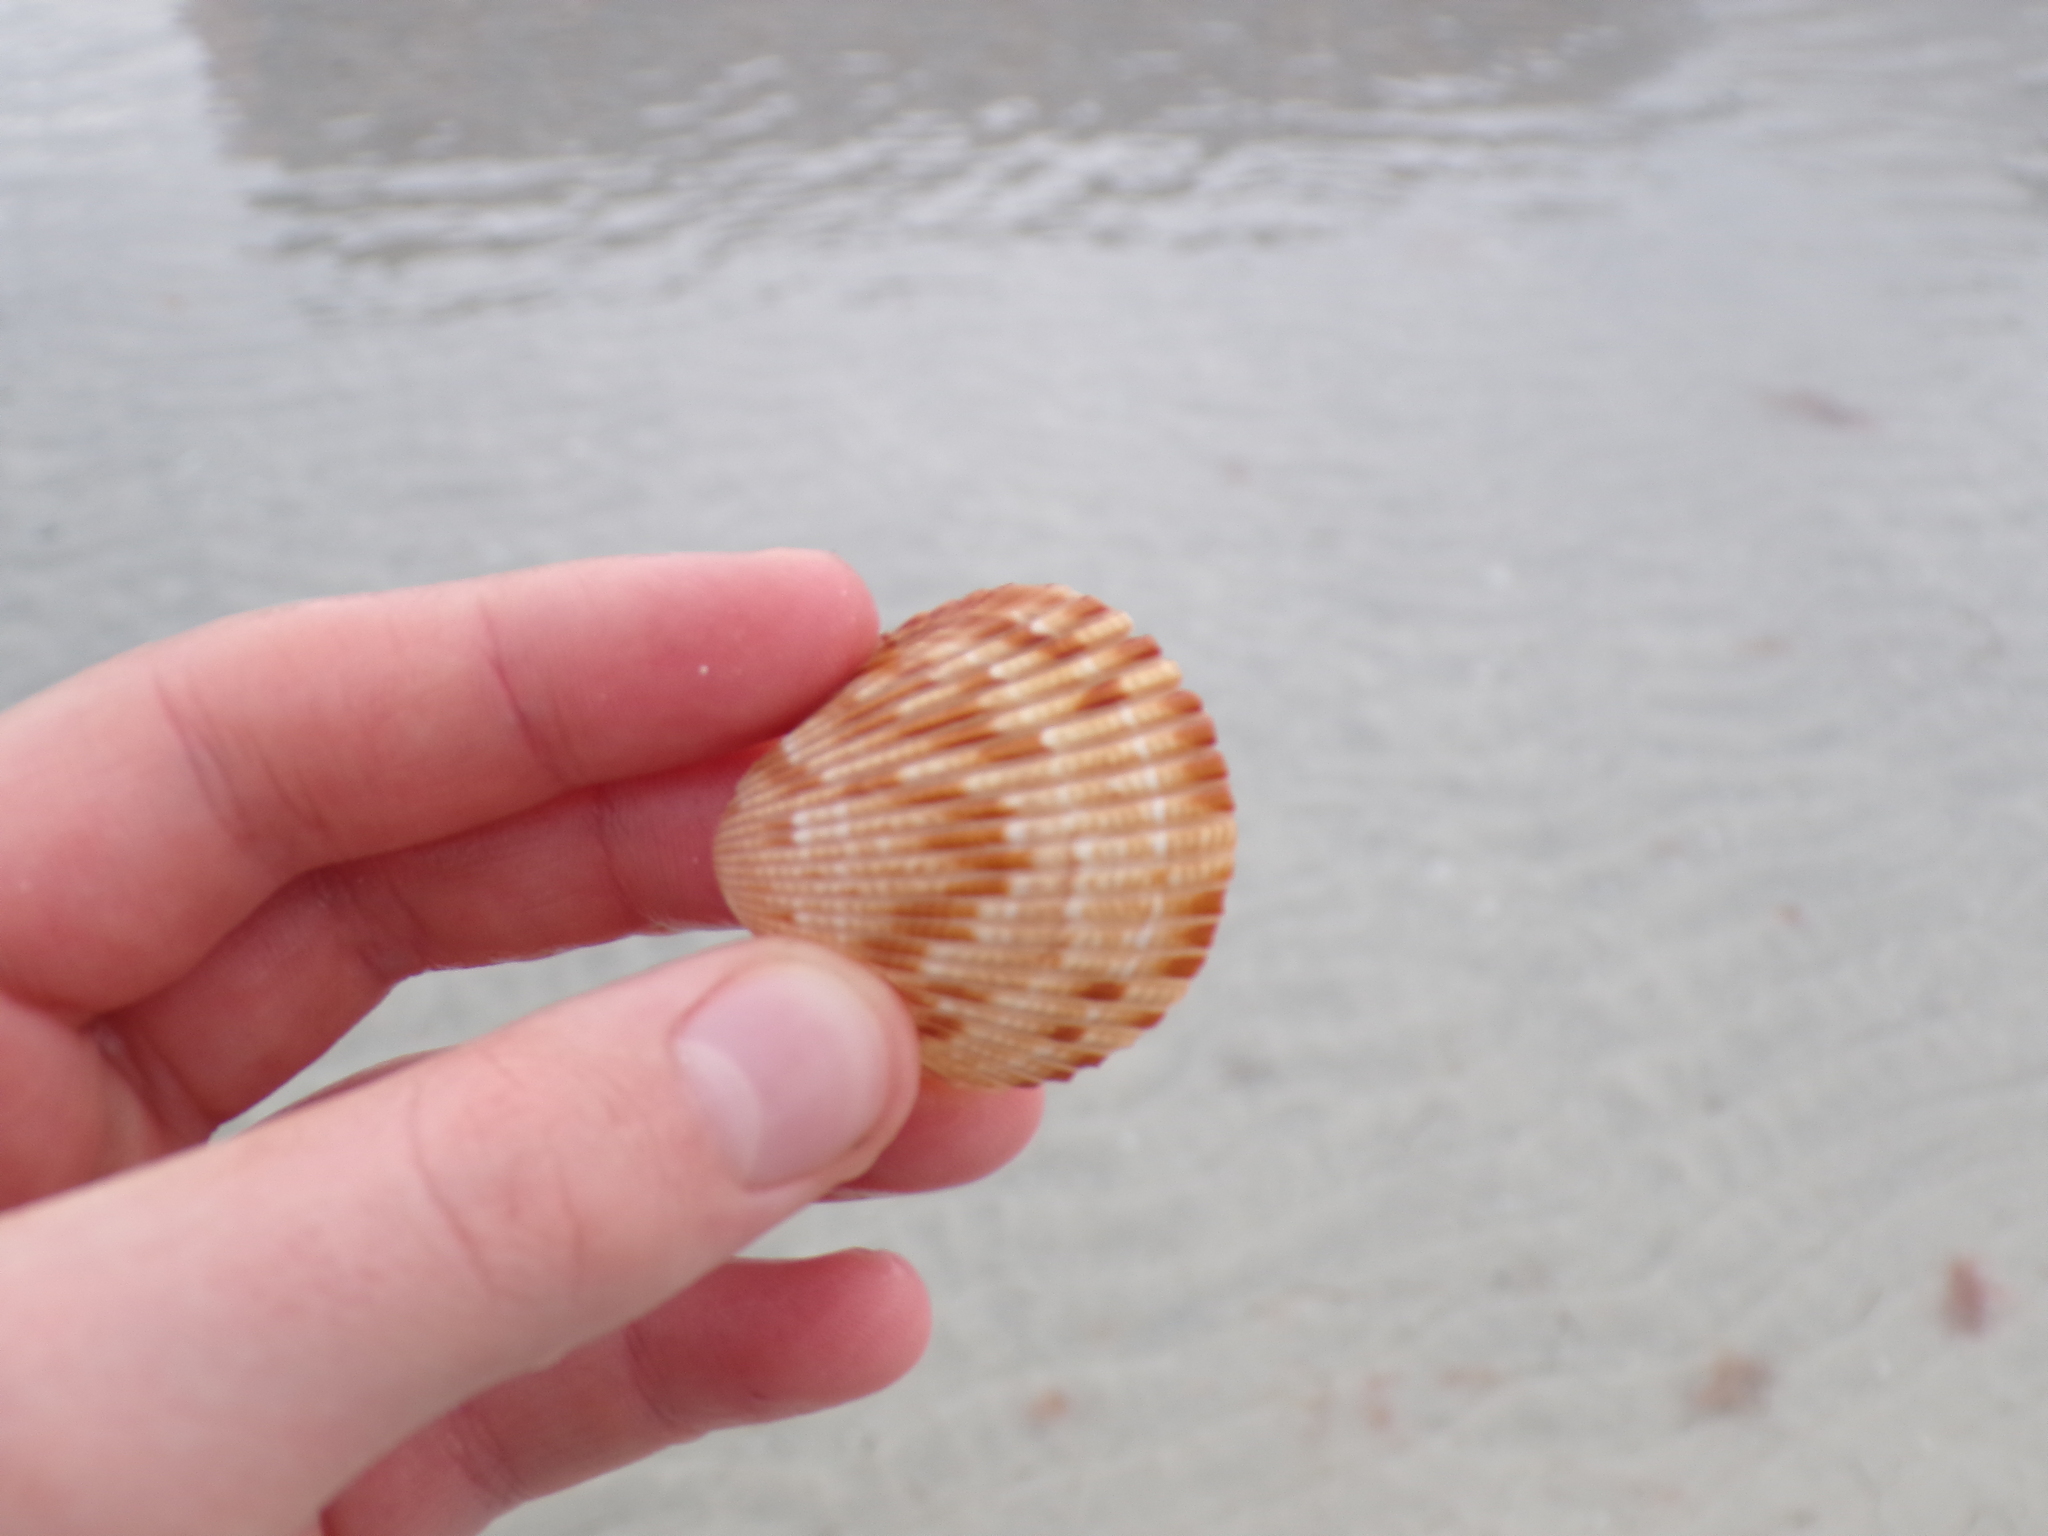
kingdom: Animalia
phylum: Mollusca
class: Bivalvia
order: Cardiida
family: Cardiidae
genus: Dinocardium
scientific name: Dinocardium robustum
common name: Atlantic giant cockle
